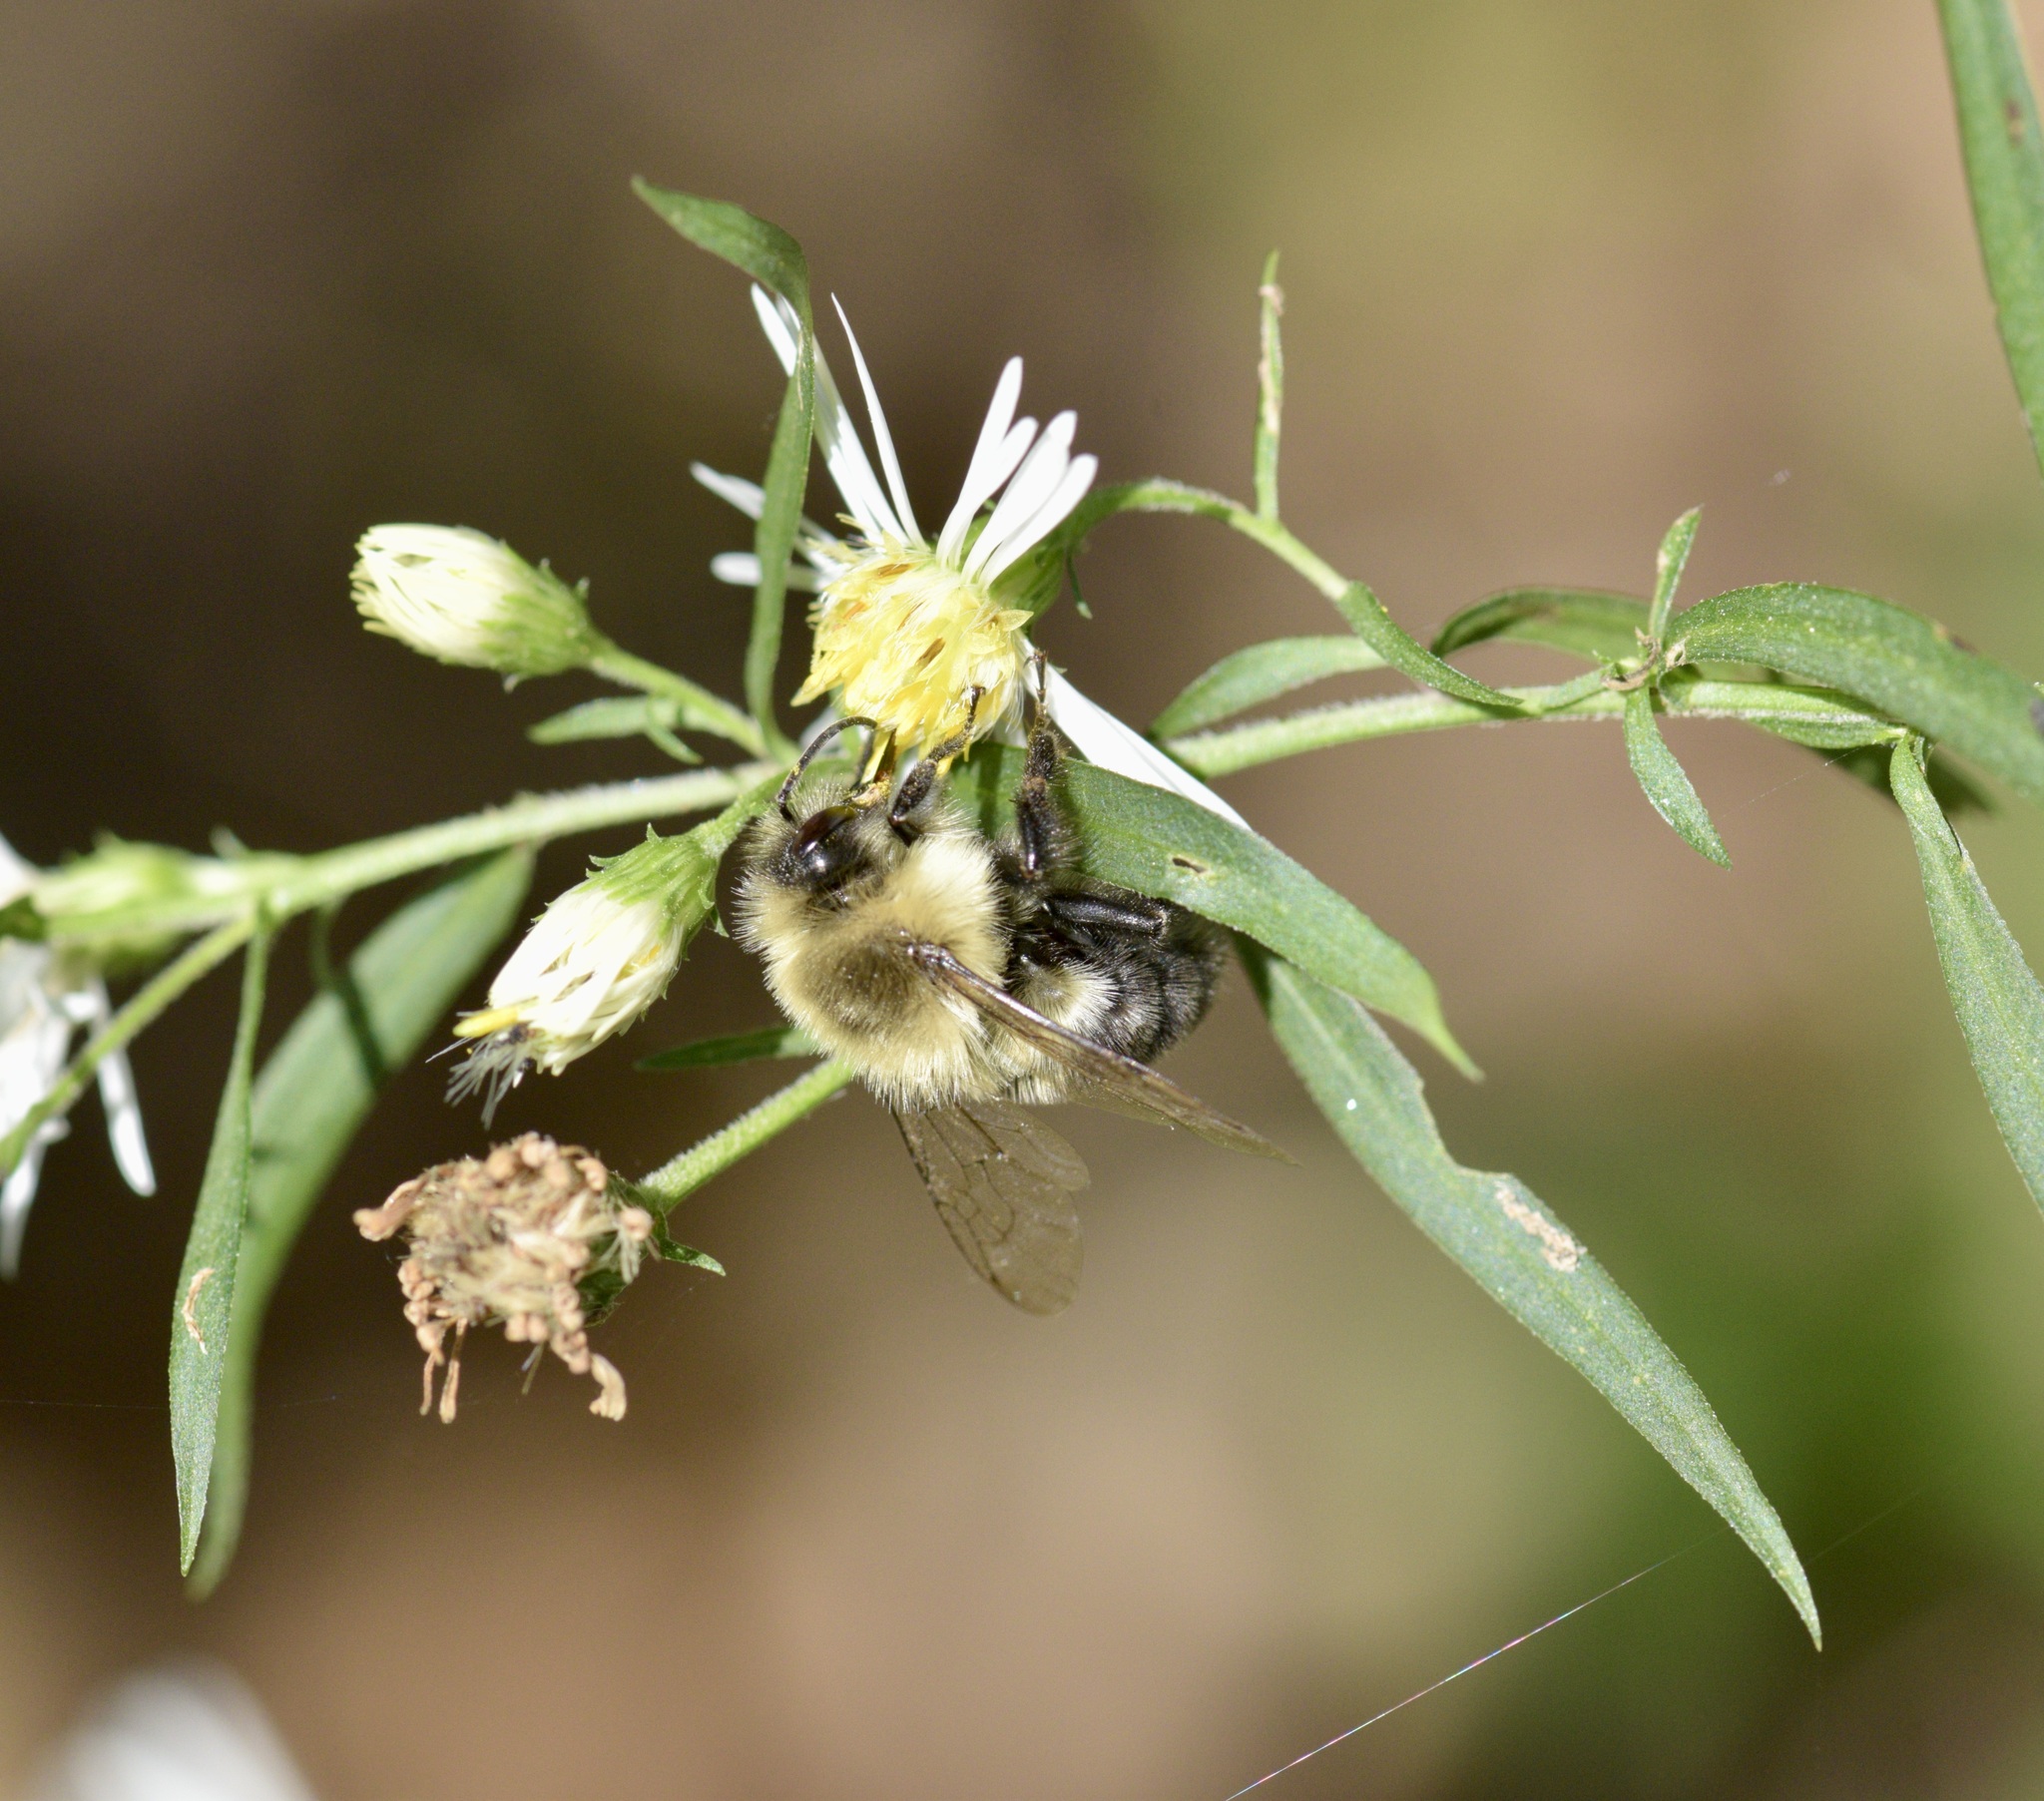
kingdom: Animalia
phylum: Arthropoda
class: Insecta
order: Hymenoptera
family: Apidae
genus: Bombus
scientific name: Bombus impatiens
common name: Common eastern bumble bee
